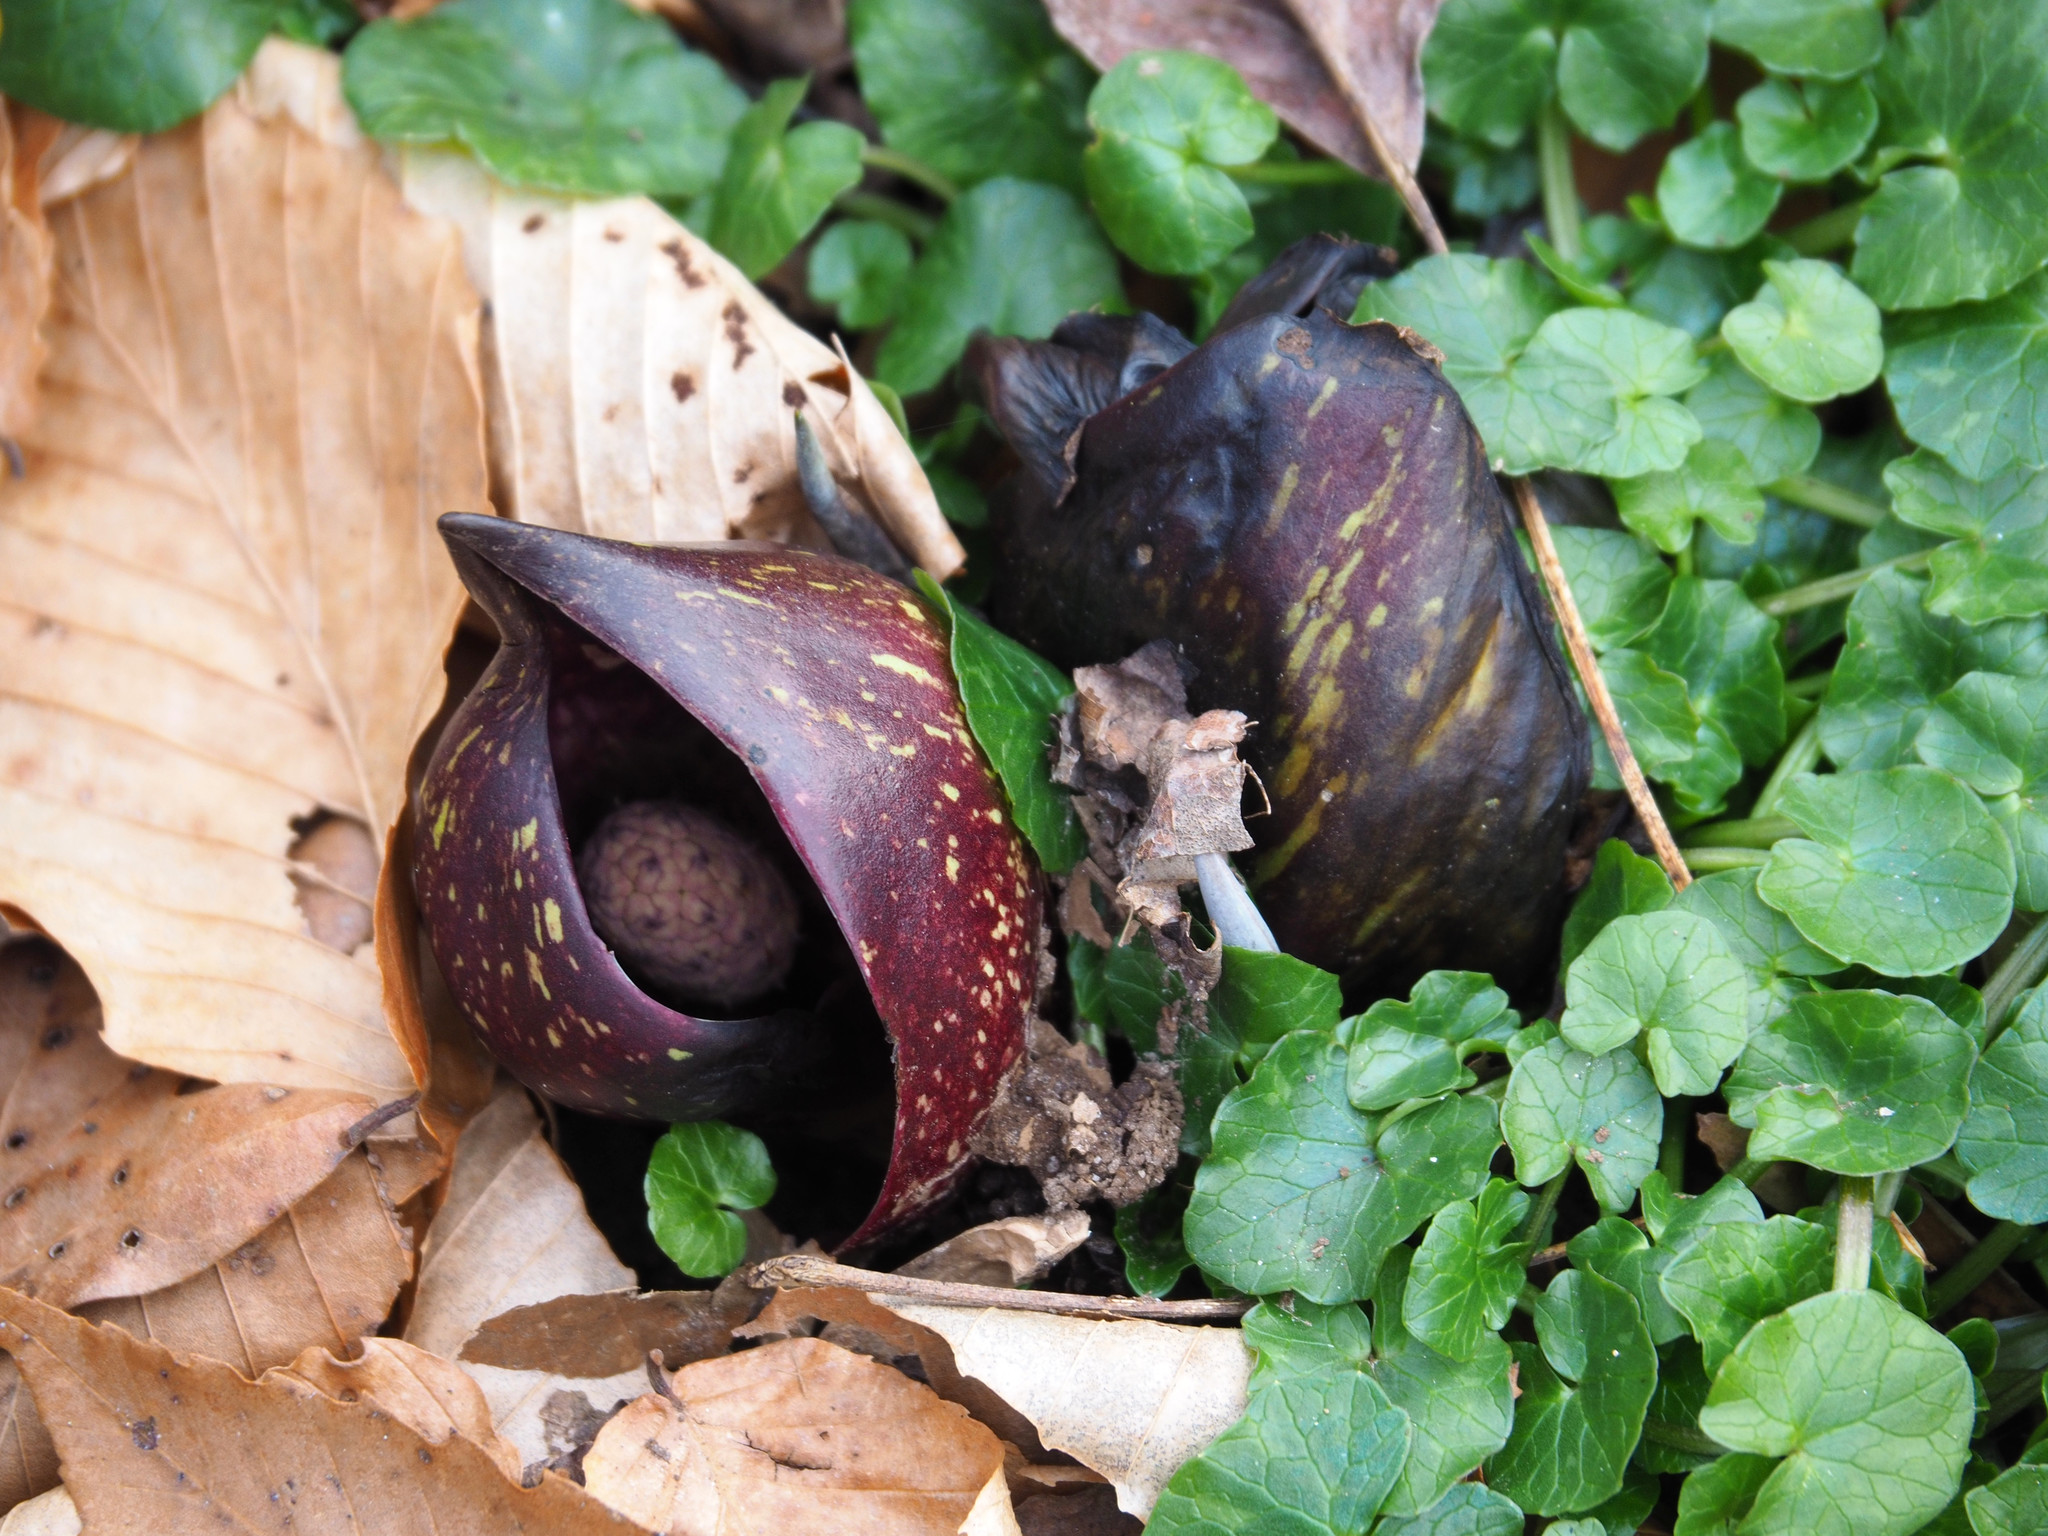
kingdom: Plantae
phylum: Tracheophyta
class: Liliopsida
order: Alismatales
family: Araceae
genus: Symplocarpus
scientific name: Symplocarpus foetidus
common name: Eastern skunk cabbage
